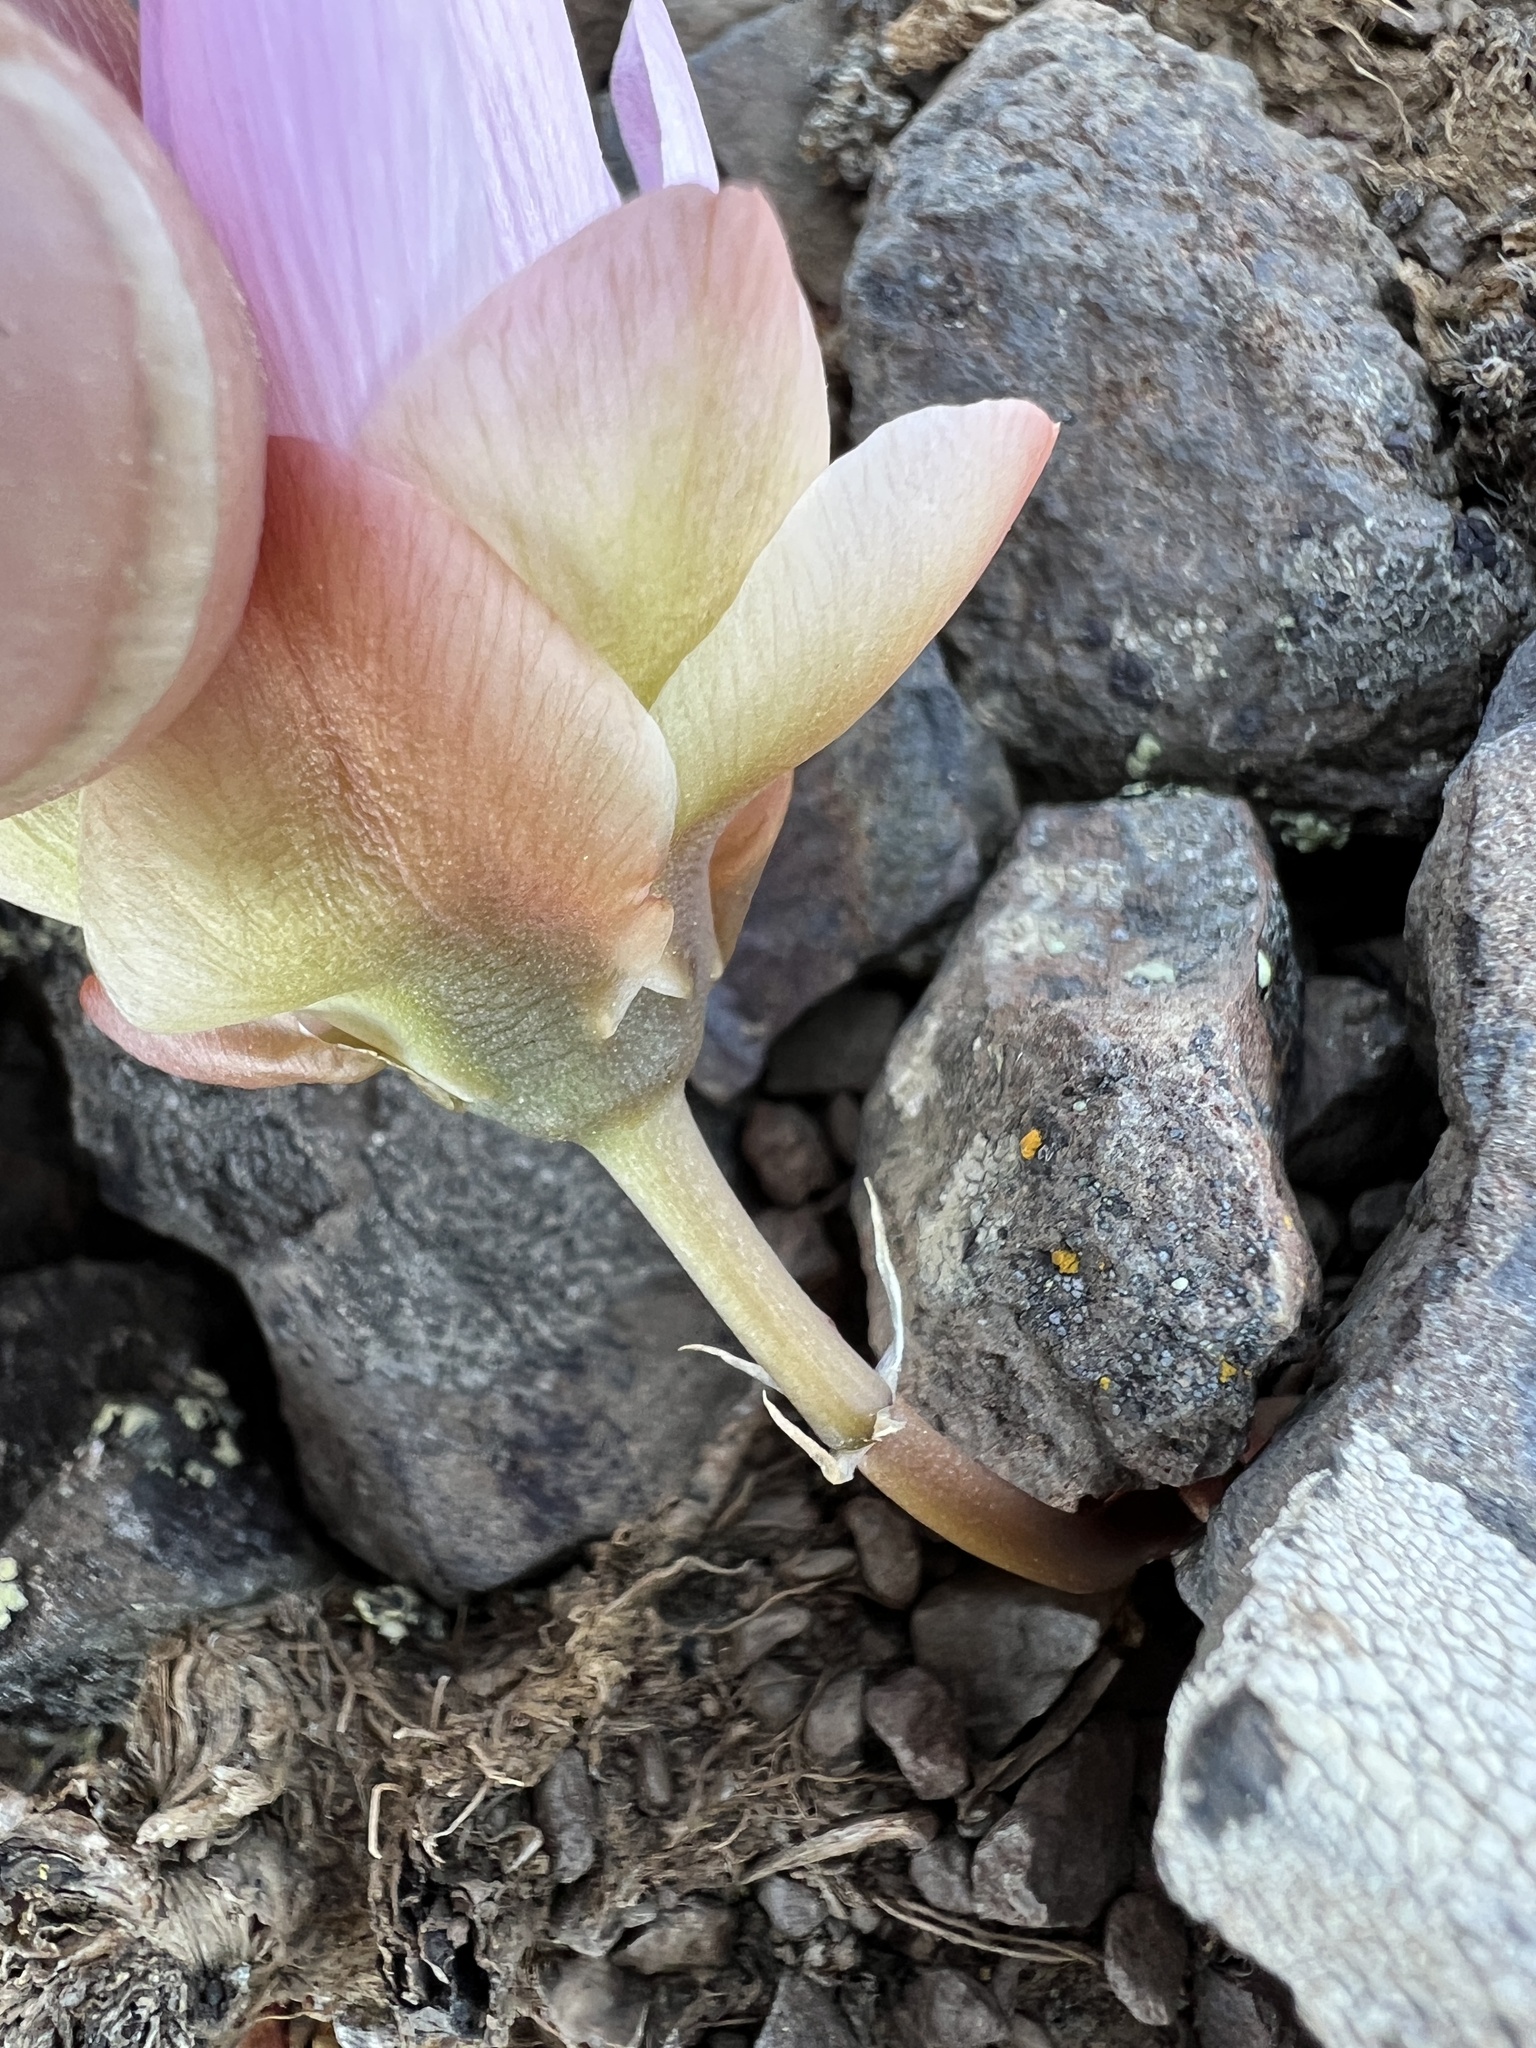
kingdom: Plantae
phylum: Tracheophyta
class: Magnoliopsida
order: Caryophyllales
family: Montiaceae
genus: Lewisia
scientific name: Lewisia rediviva
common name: Bitter-root
